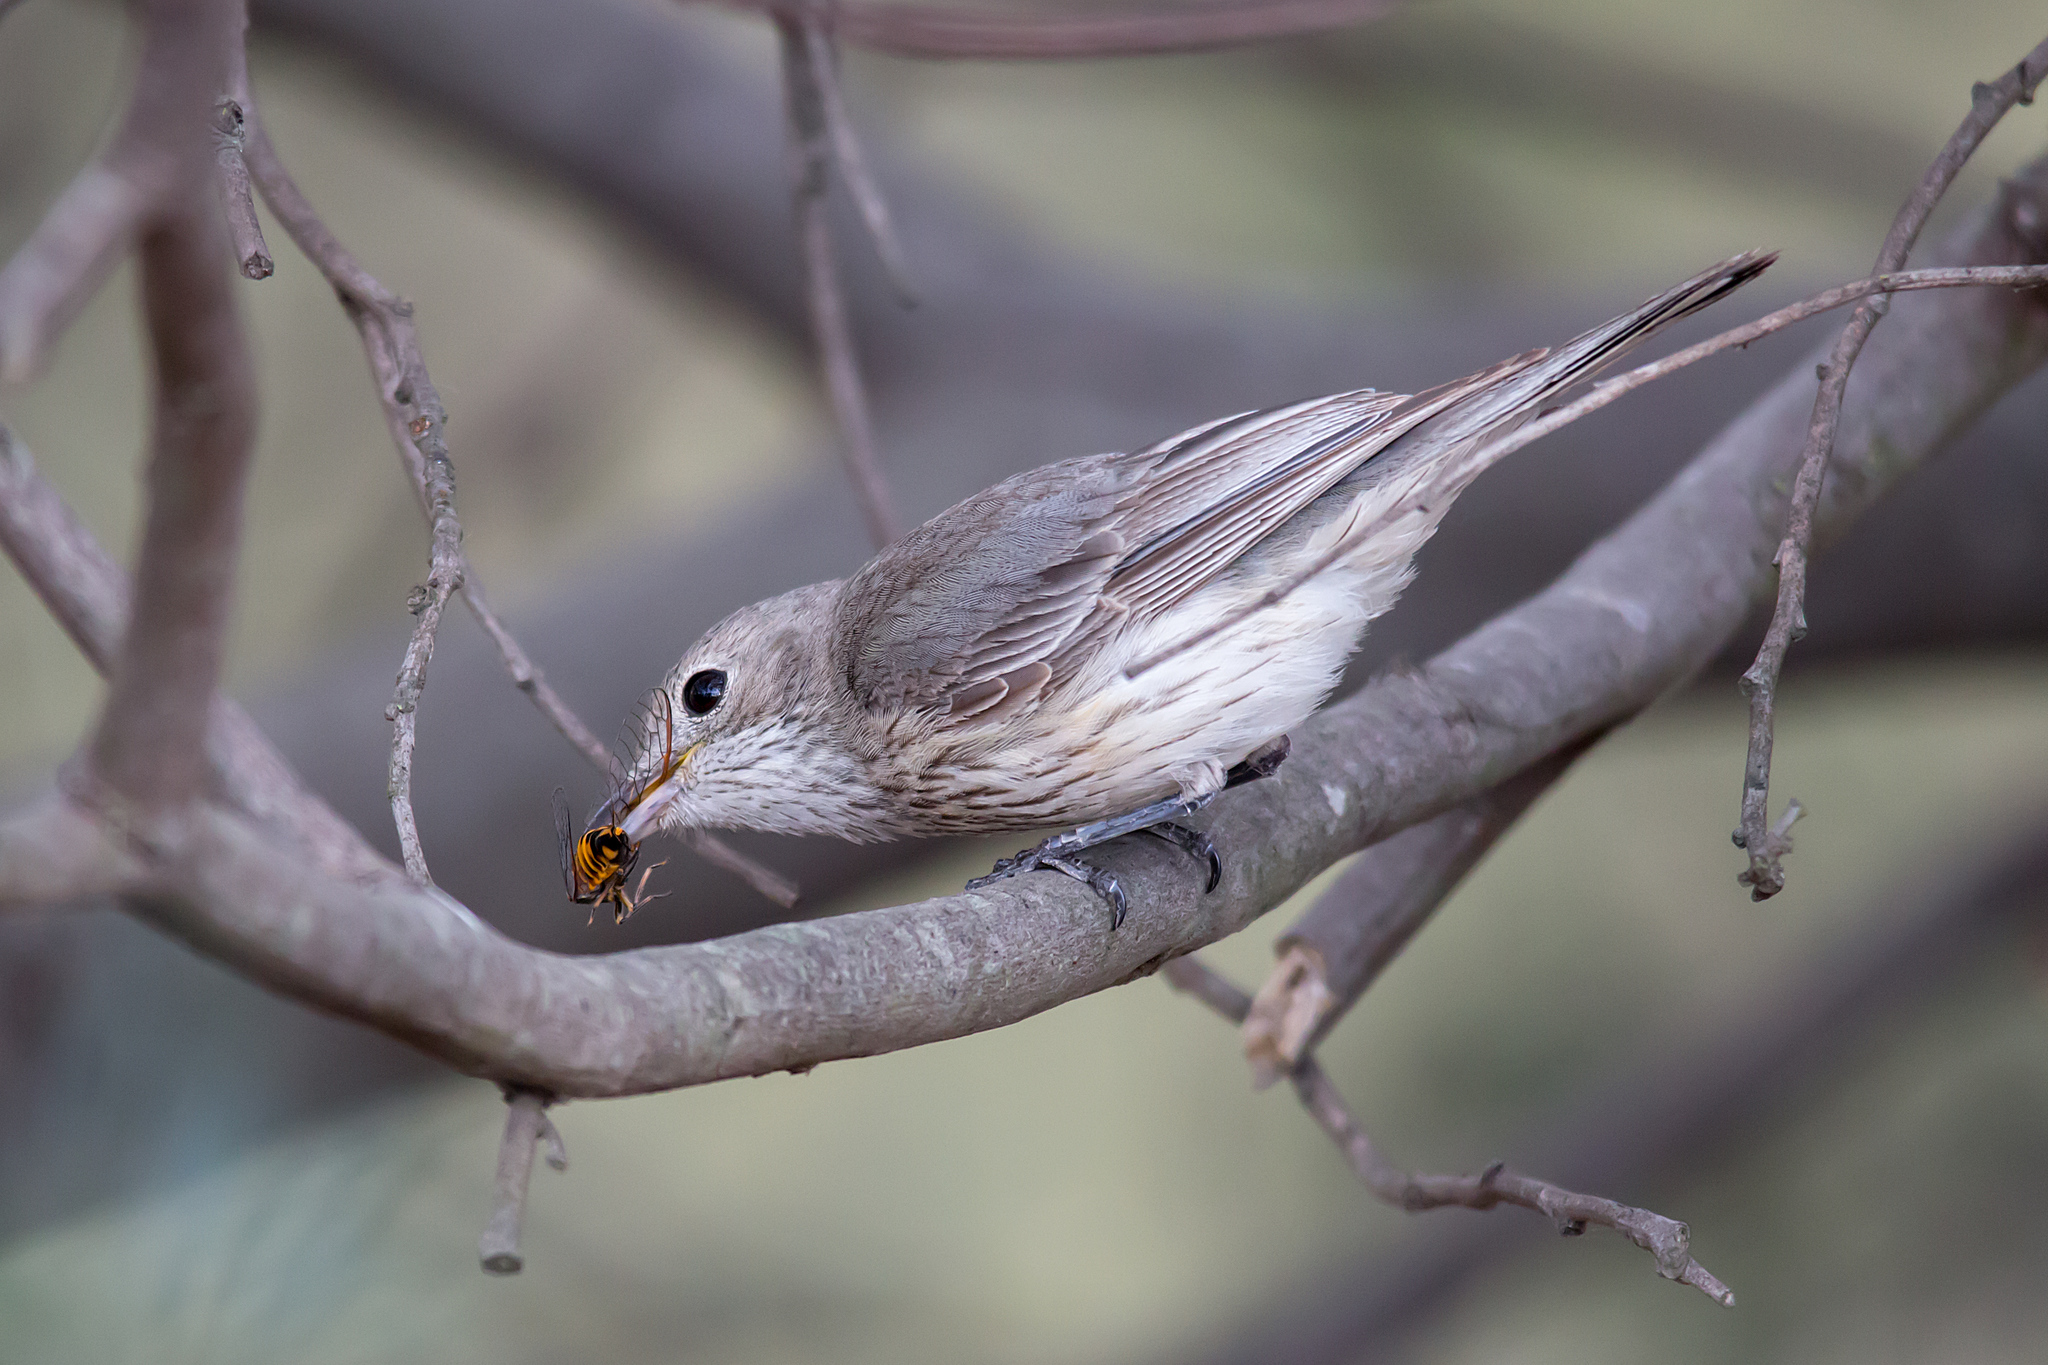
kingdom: Animalia
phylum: Chordata
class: Aves
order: Passeriformes
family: Pachycephalidae
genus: Pachycephala
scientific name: Pachycephala rufiventris
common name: Rufous whistler
